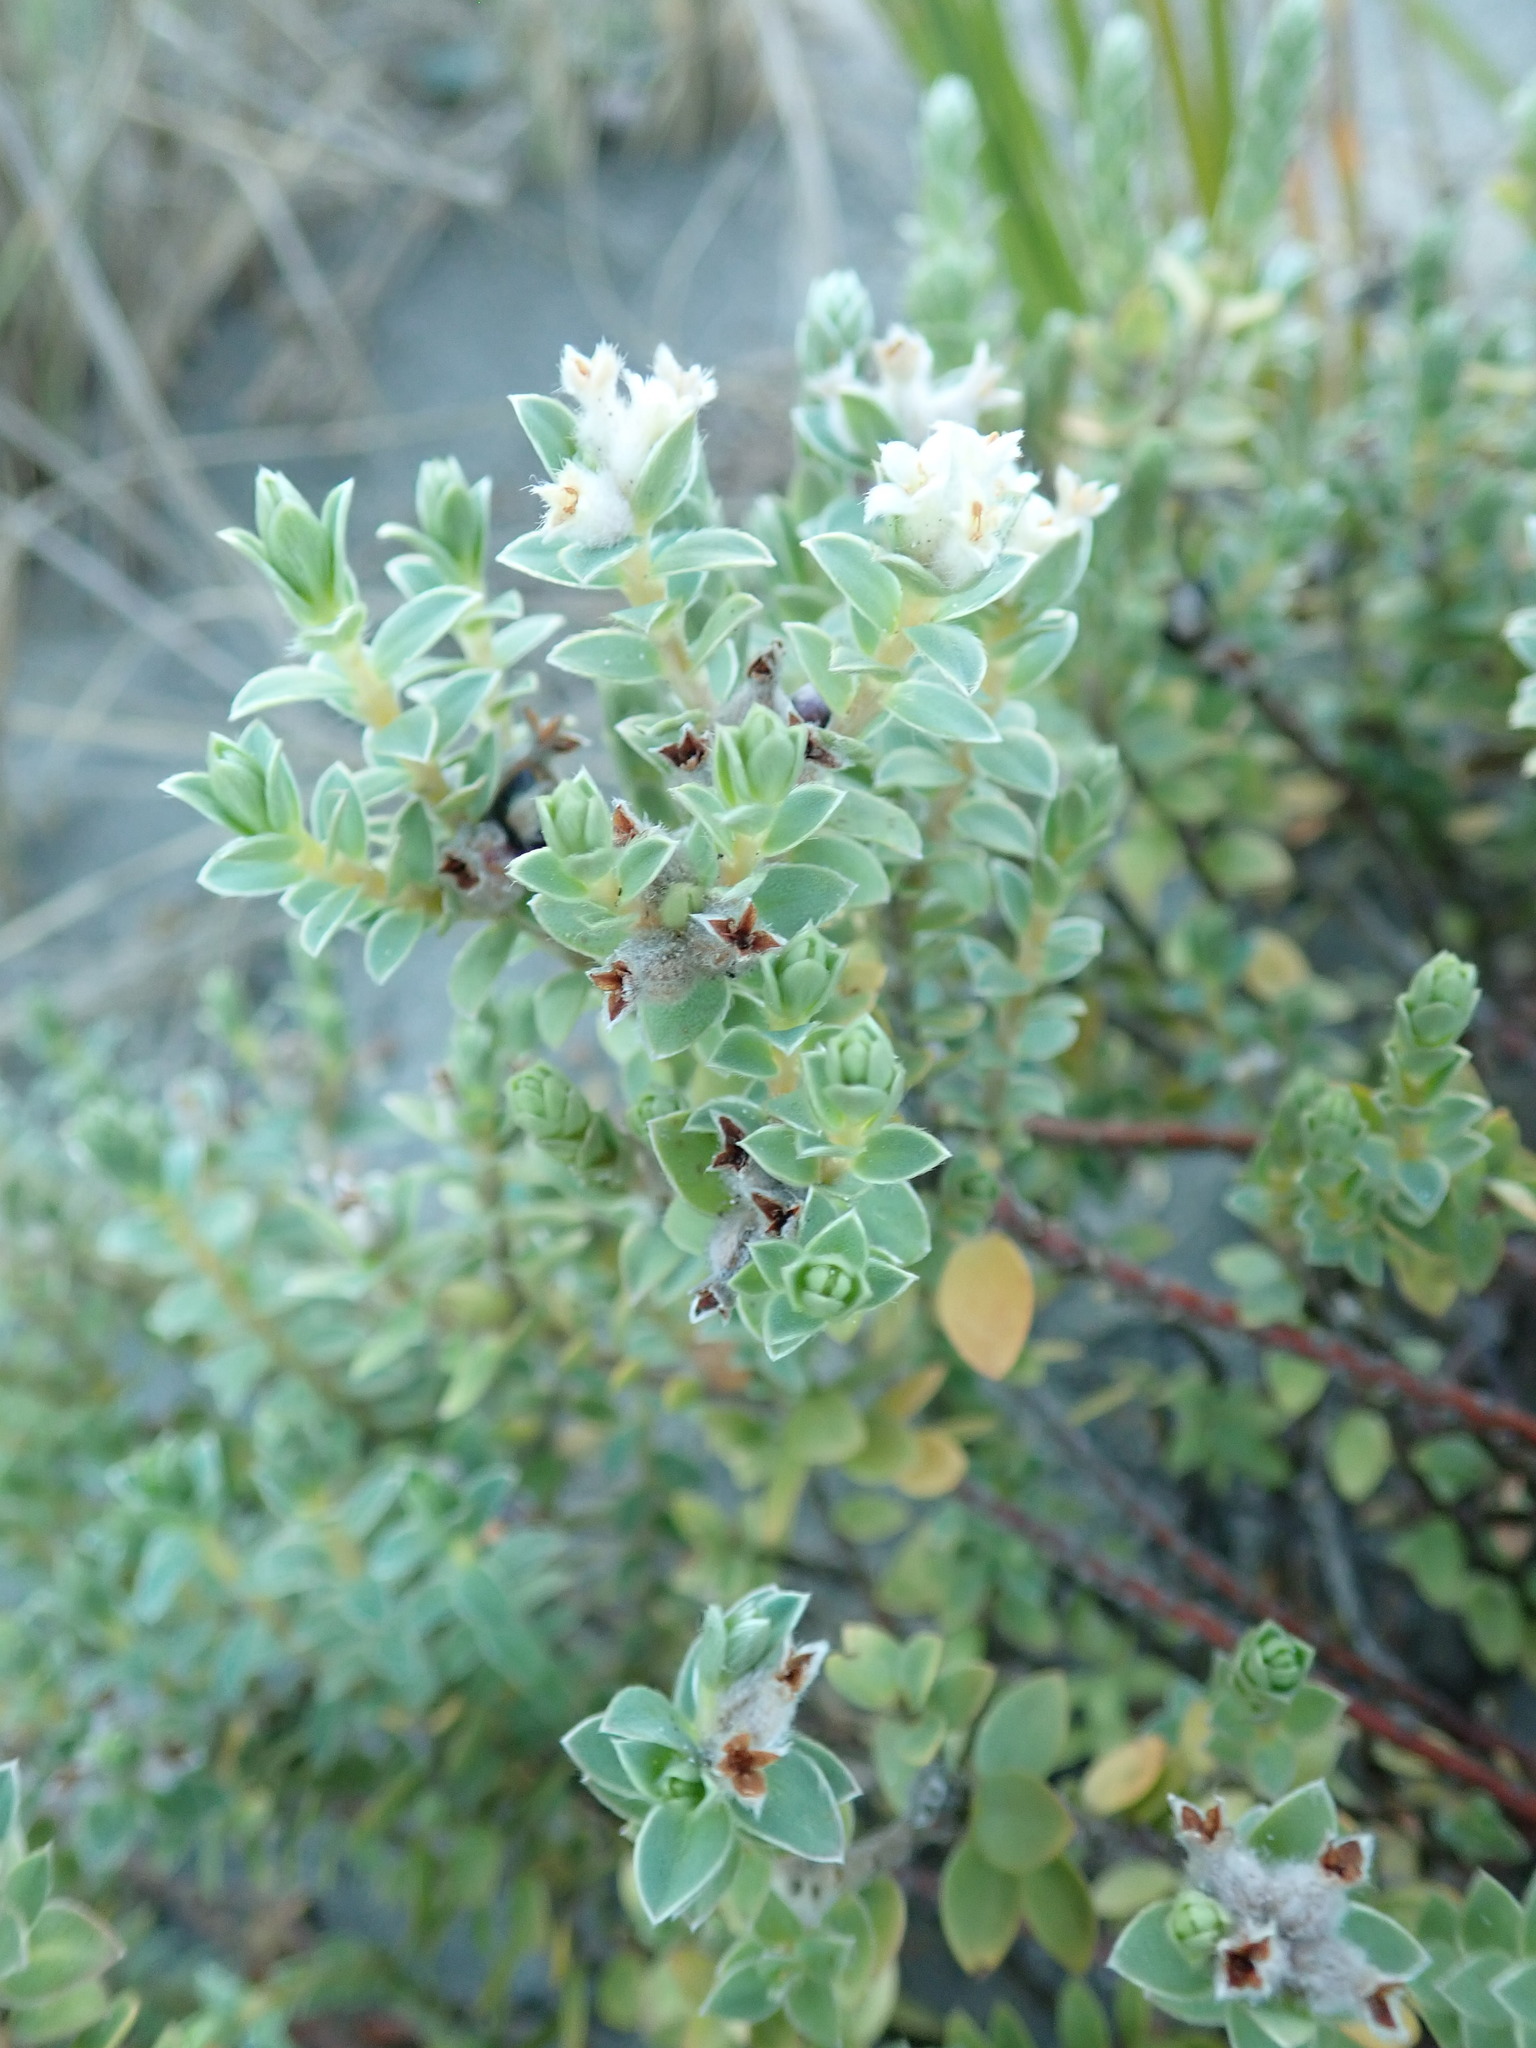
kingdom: Plantae
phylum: Tracheophyta
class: Magnoliopsida
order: Malvales
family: Thymelaeaceae
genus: Pimelea
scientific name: Pimelea villosa
